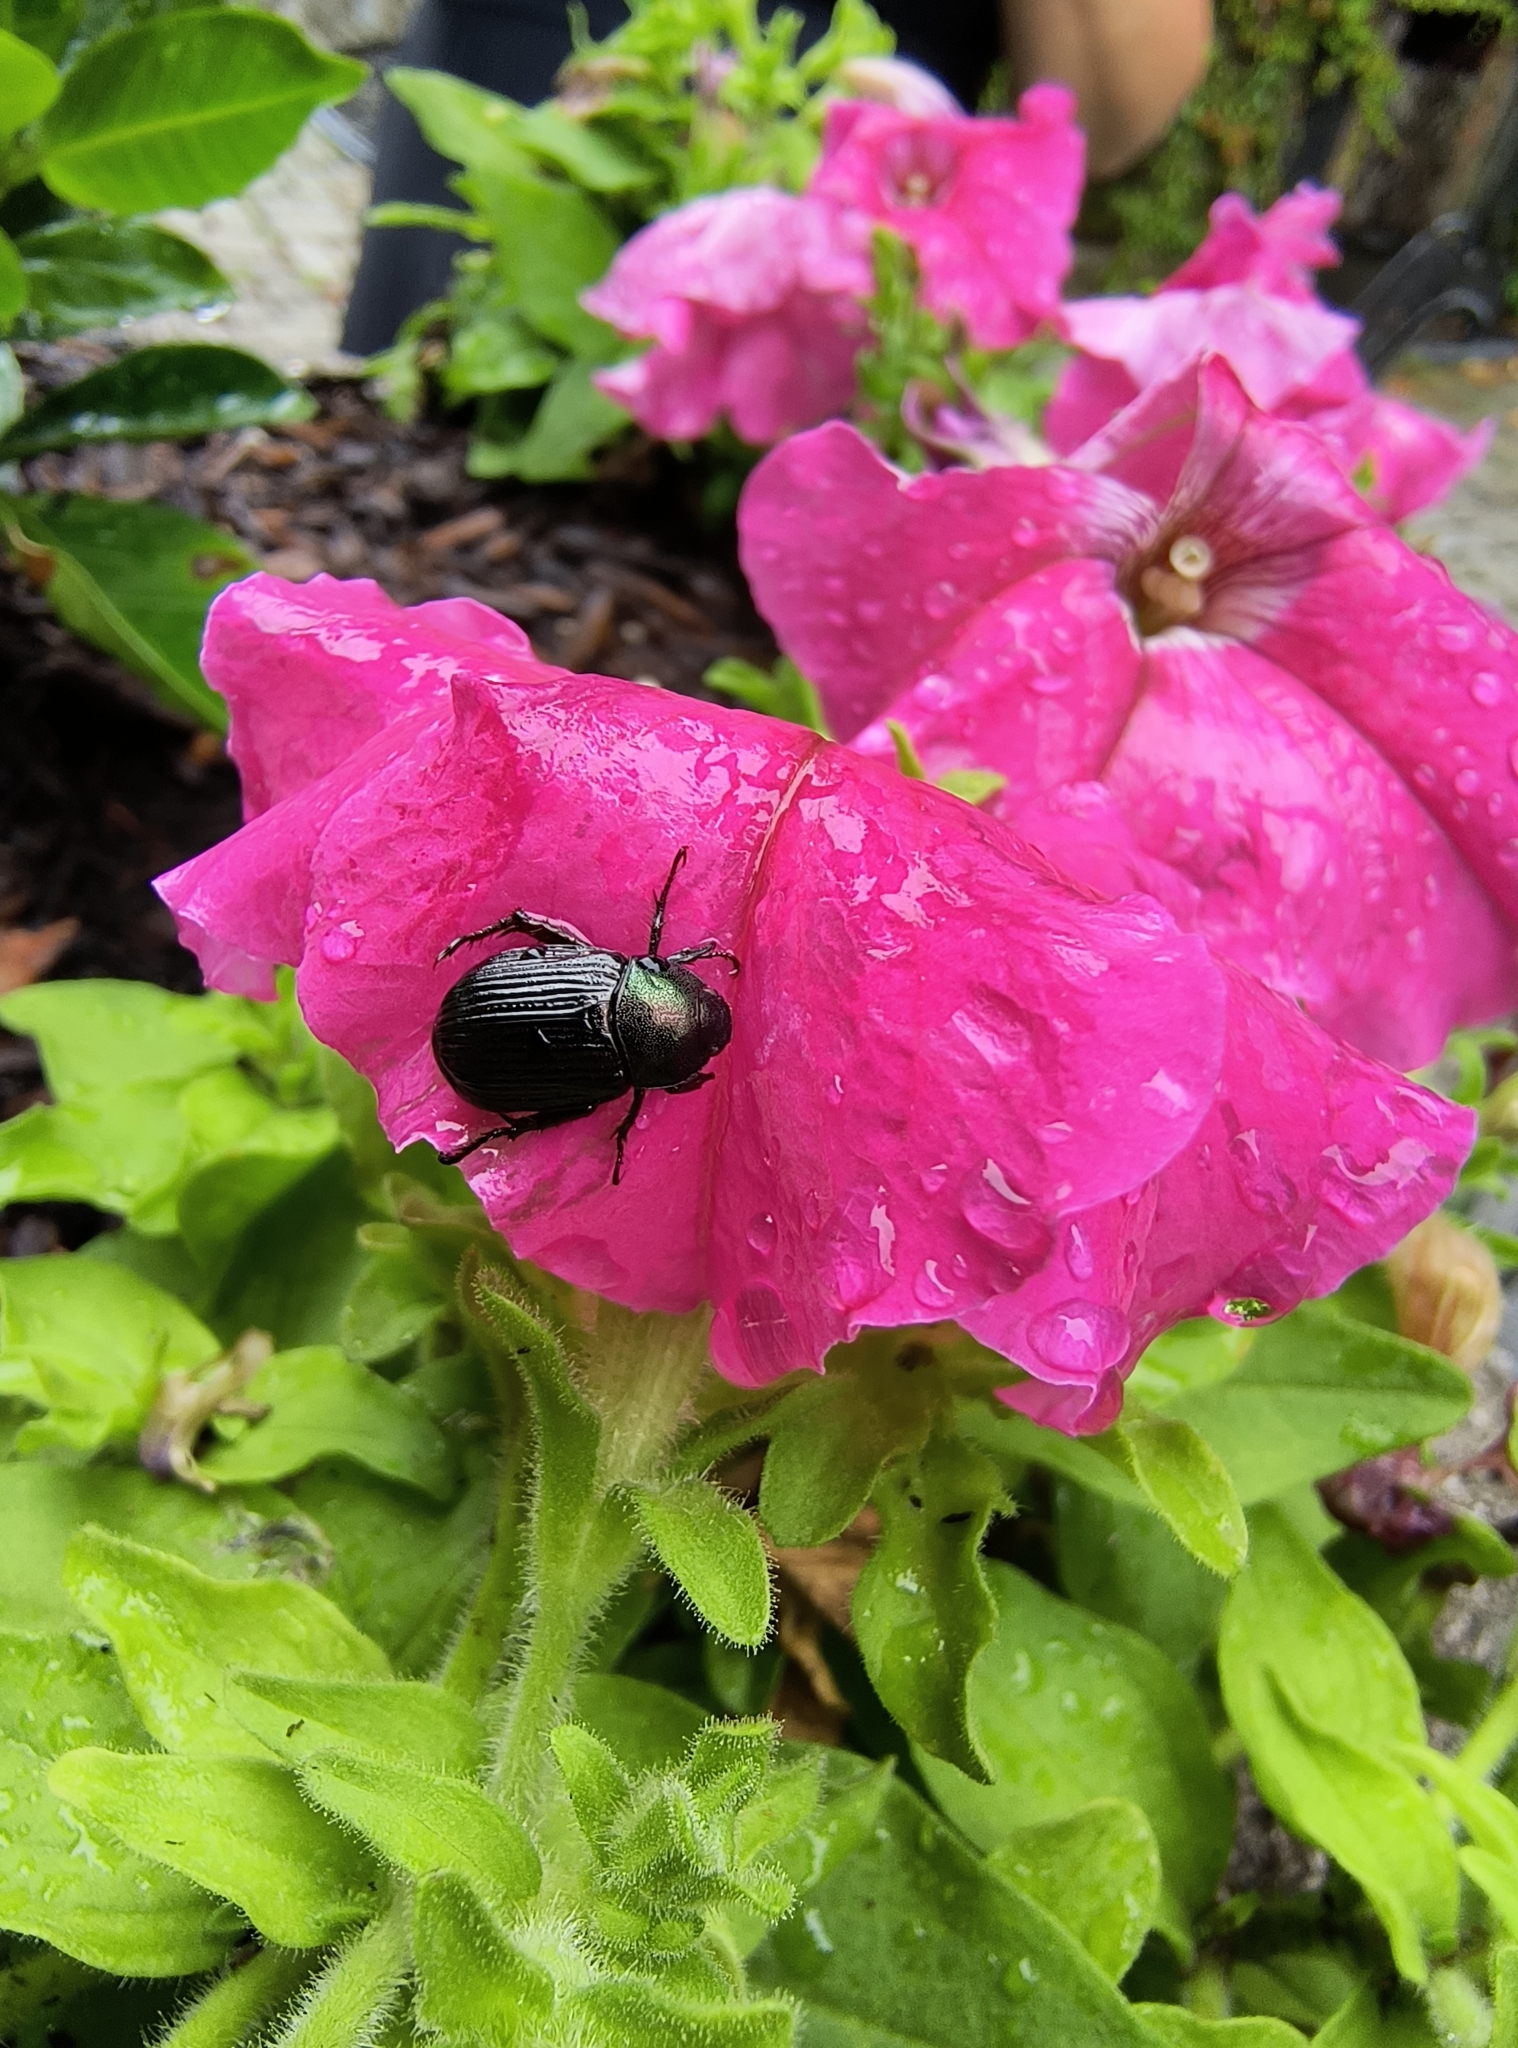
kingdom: Animalia
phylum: Arthropoda
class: Insecta
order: Coleoptera
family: Scarabaeidae
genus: Exomala
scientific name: Exomala orientalis
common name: Oriental beetle
